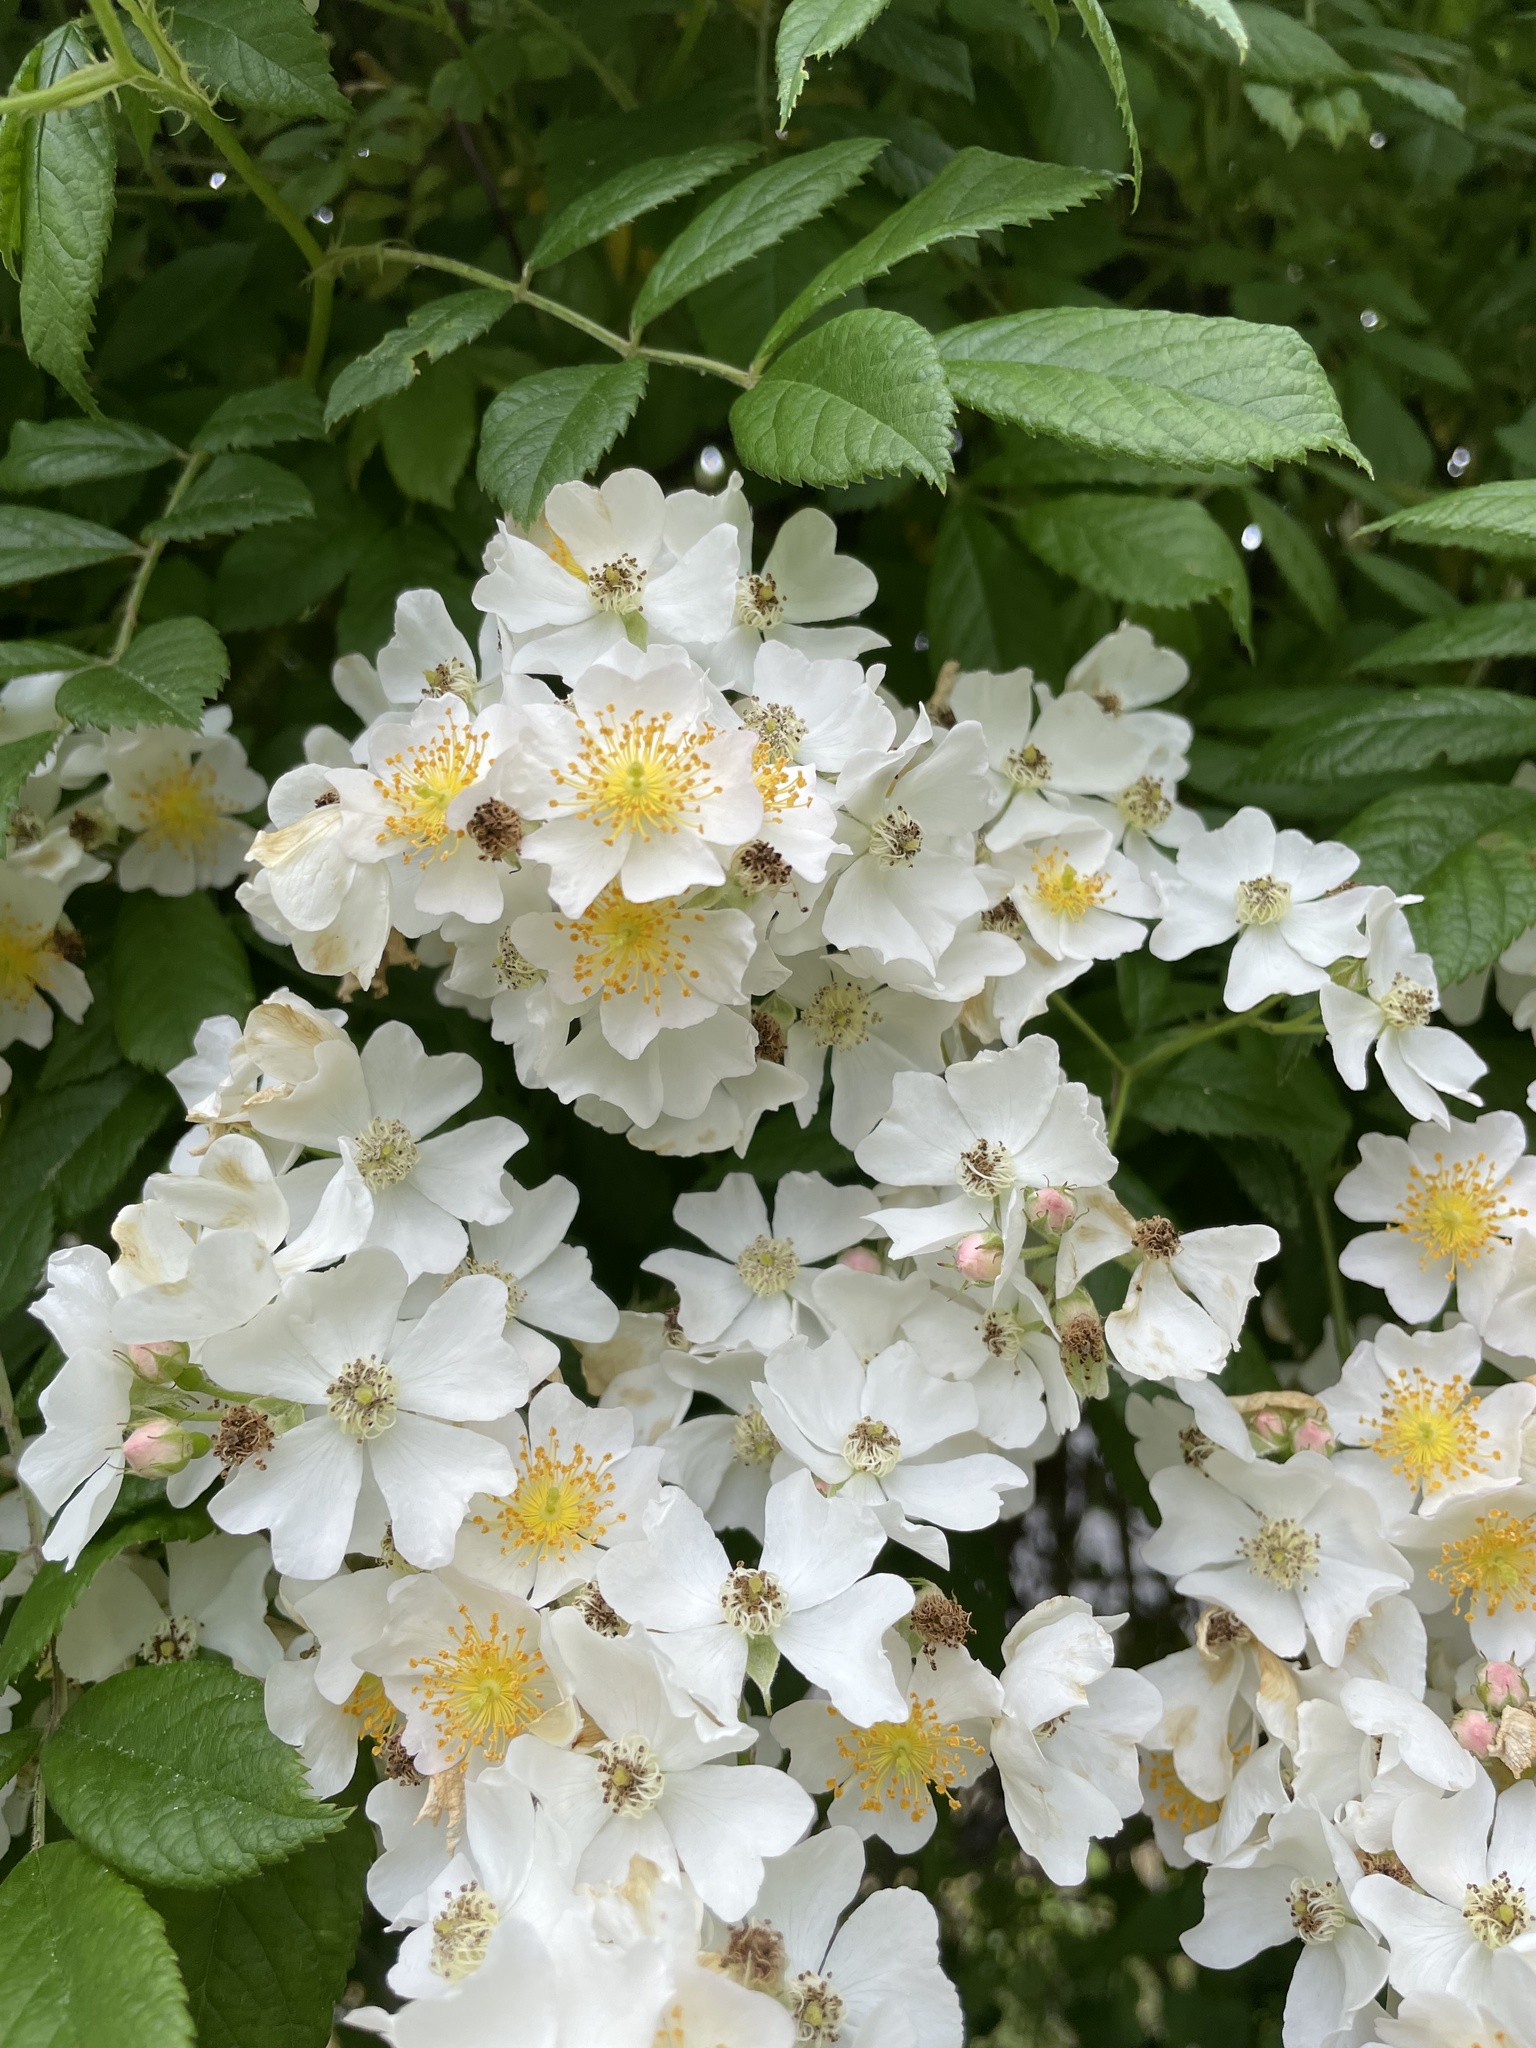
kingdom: Plantae
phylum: Tracheophyta
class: Magnoliopsida
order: Rosales
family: Rosaceae
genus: Rosa
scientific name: Rosa multiflora
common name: Multiflora rose
